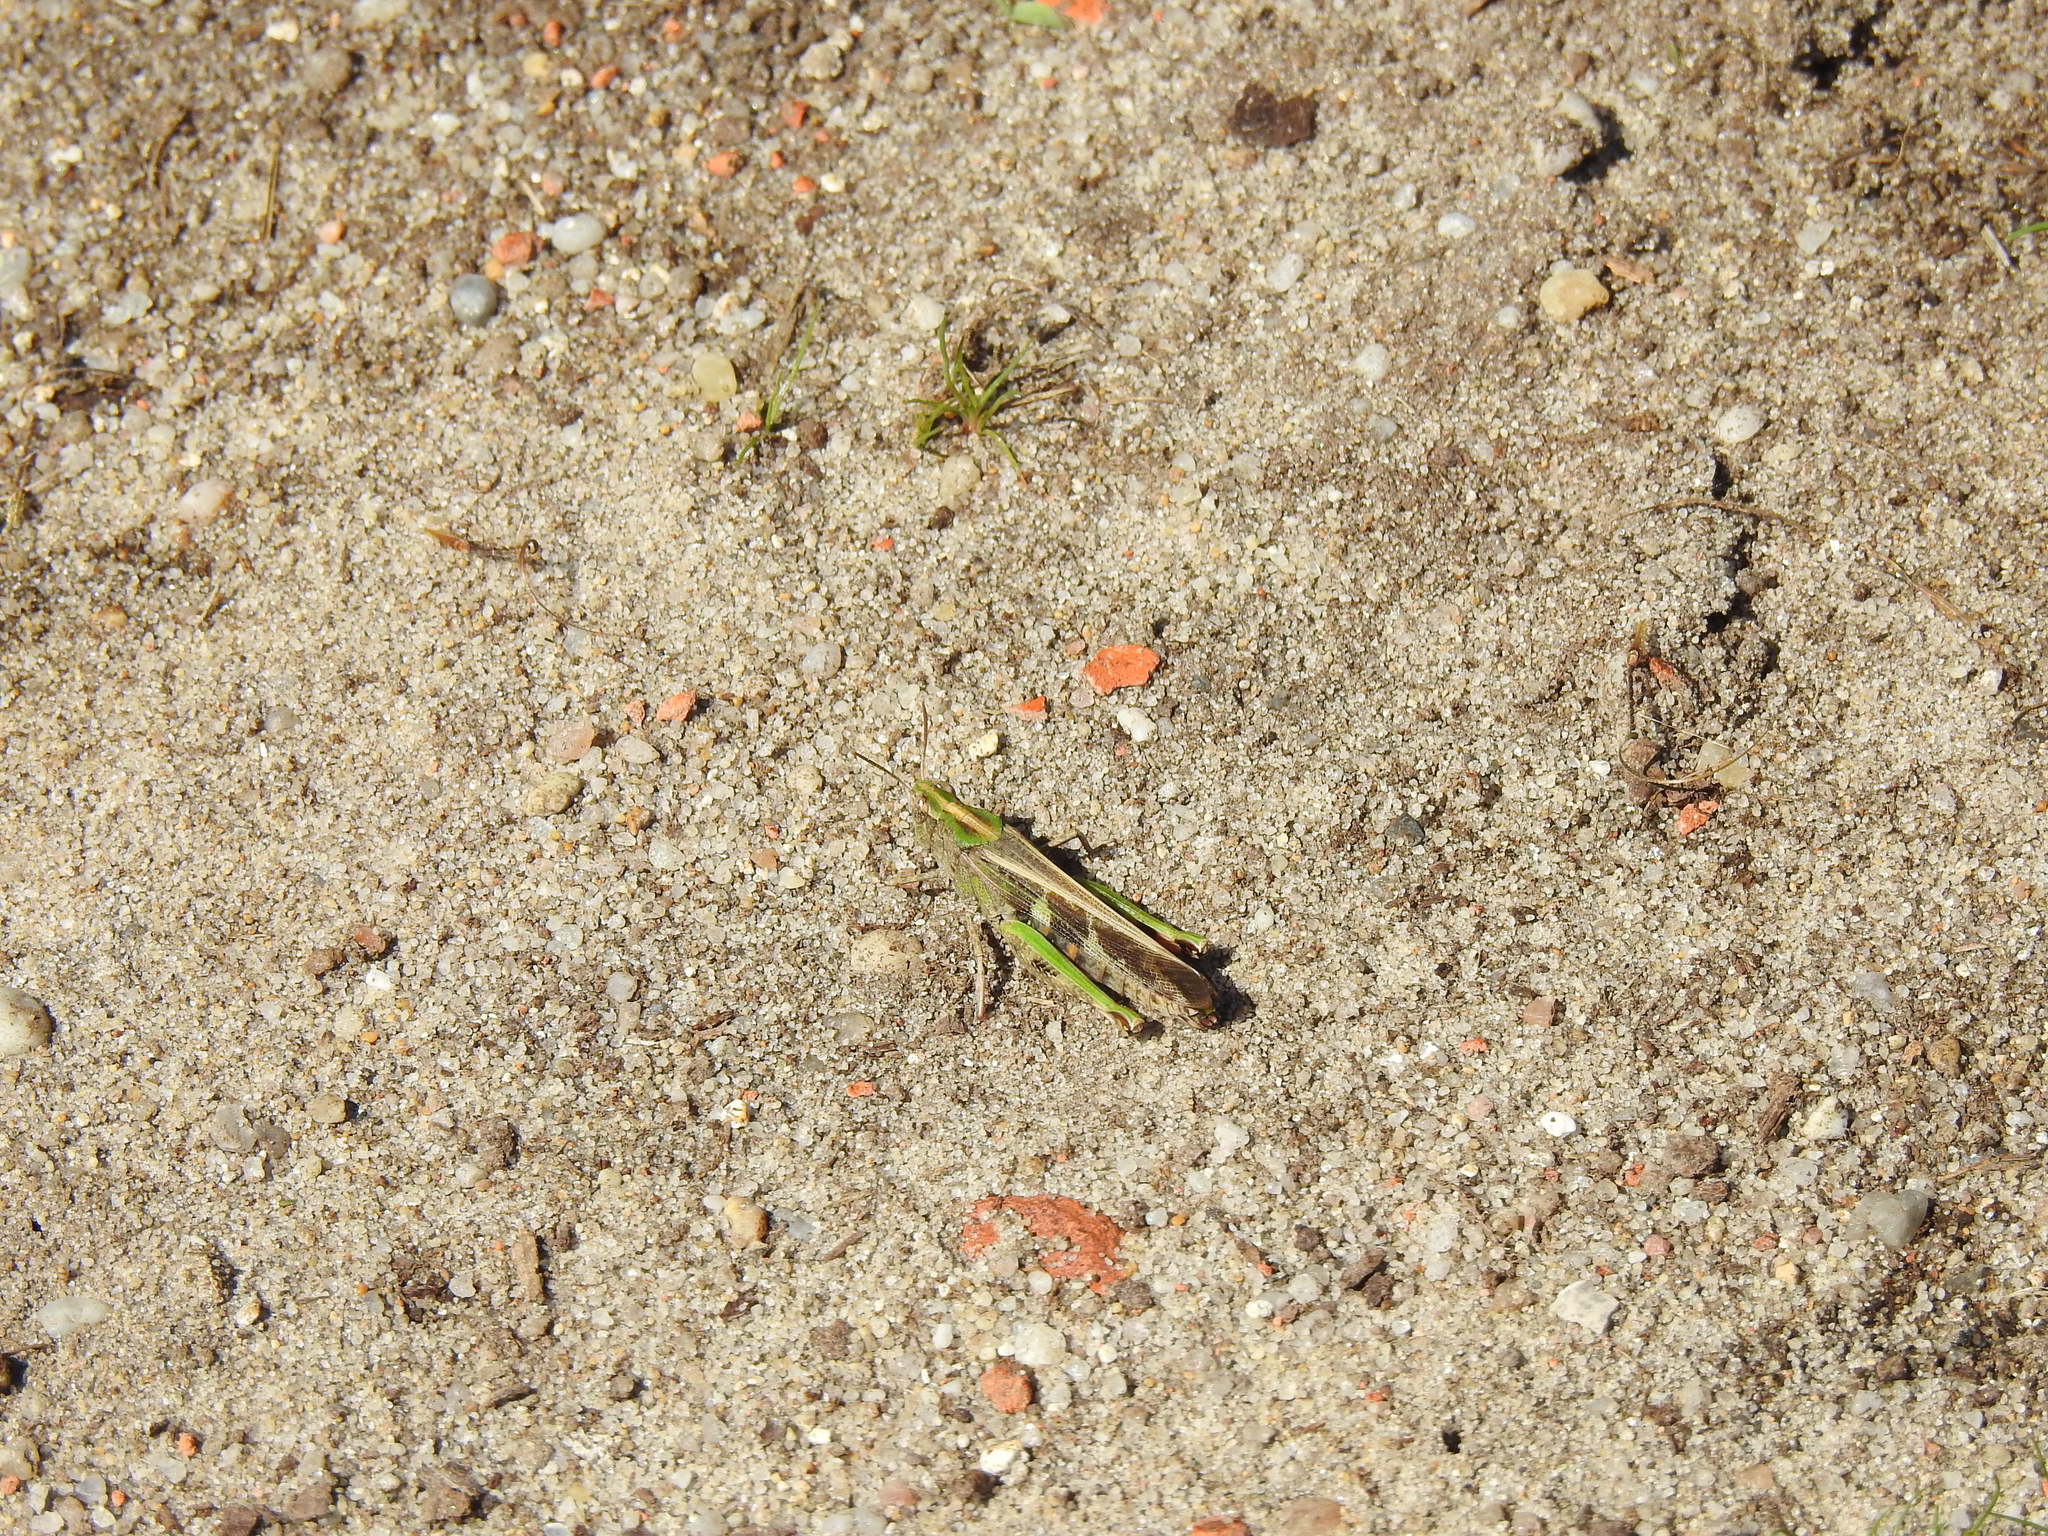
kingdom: Animalia
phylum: Arthropoda
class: Insecta
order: Orthoptera
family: Acrididae
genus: Aiolopus
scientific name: Aiolopus strepens
